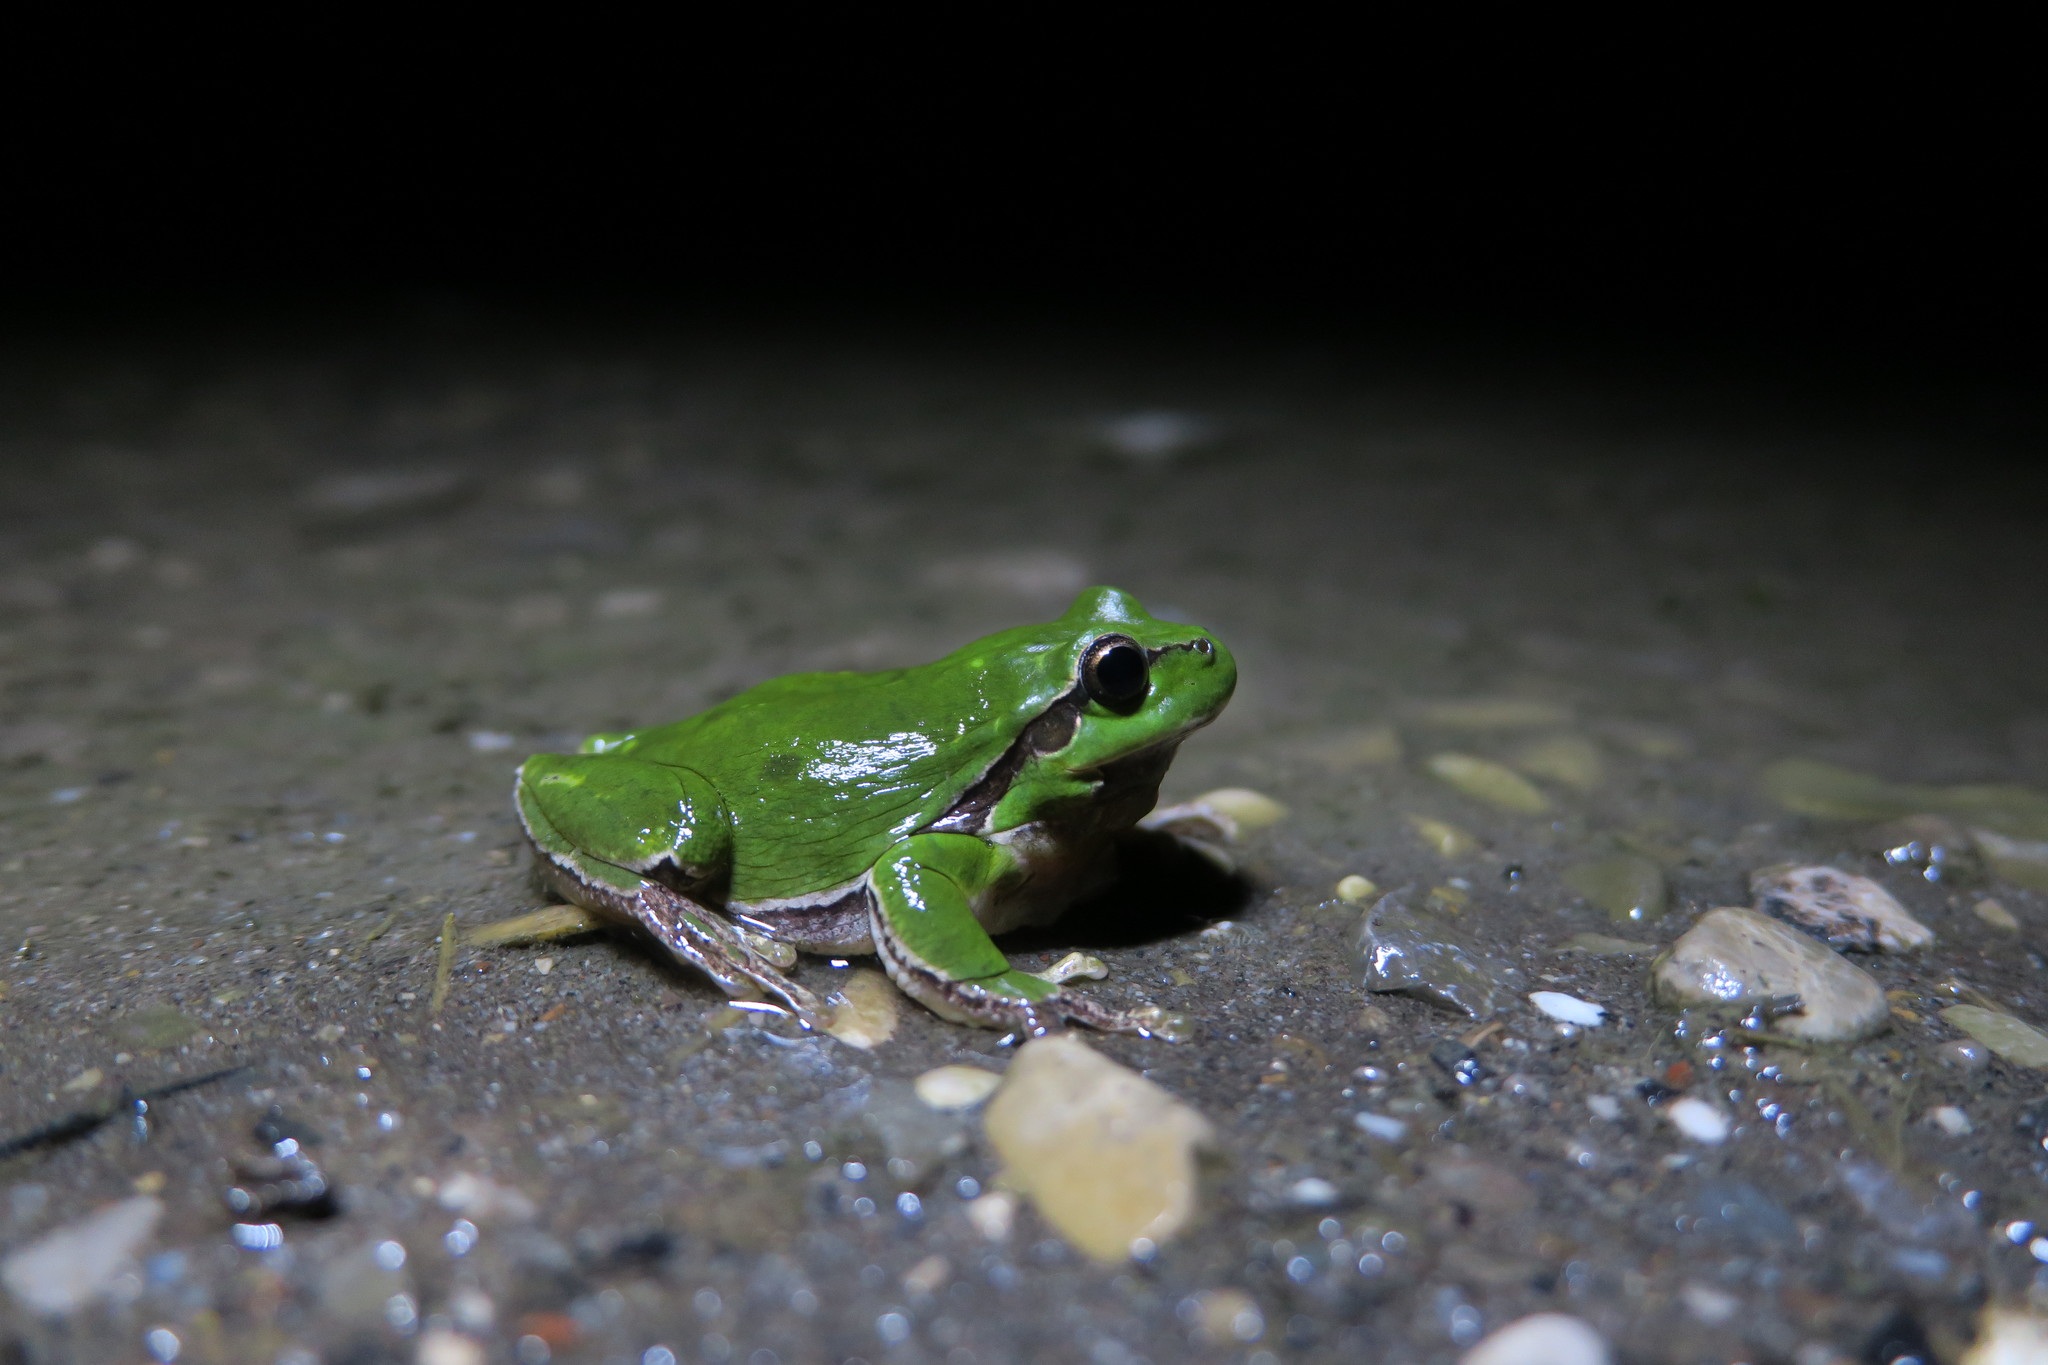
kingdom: Animalia
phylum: Chordata
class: Amphibia
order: Anura
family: Hylidae
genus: Hyla
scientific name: Hyla arborea
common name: Common tree frog
